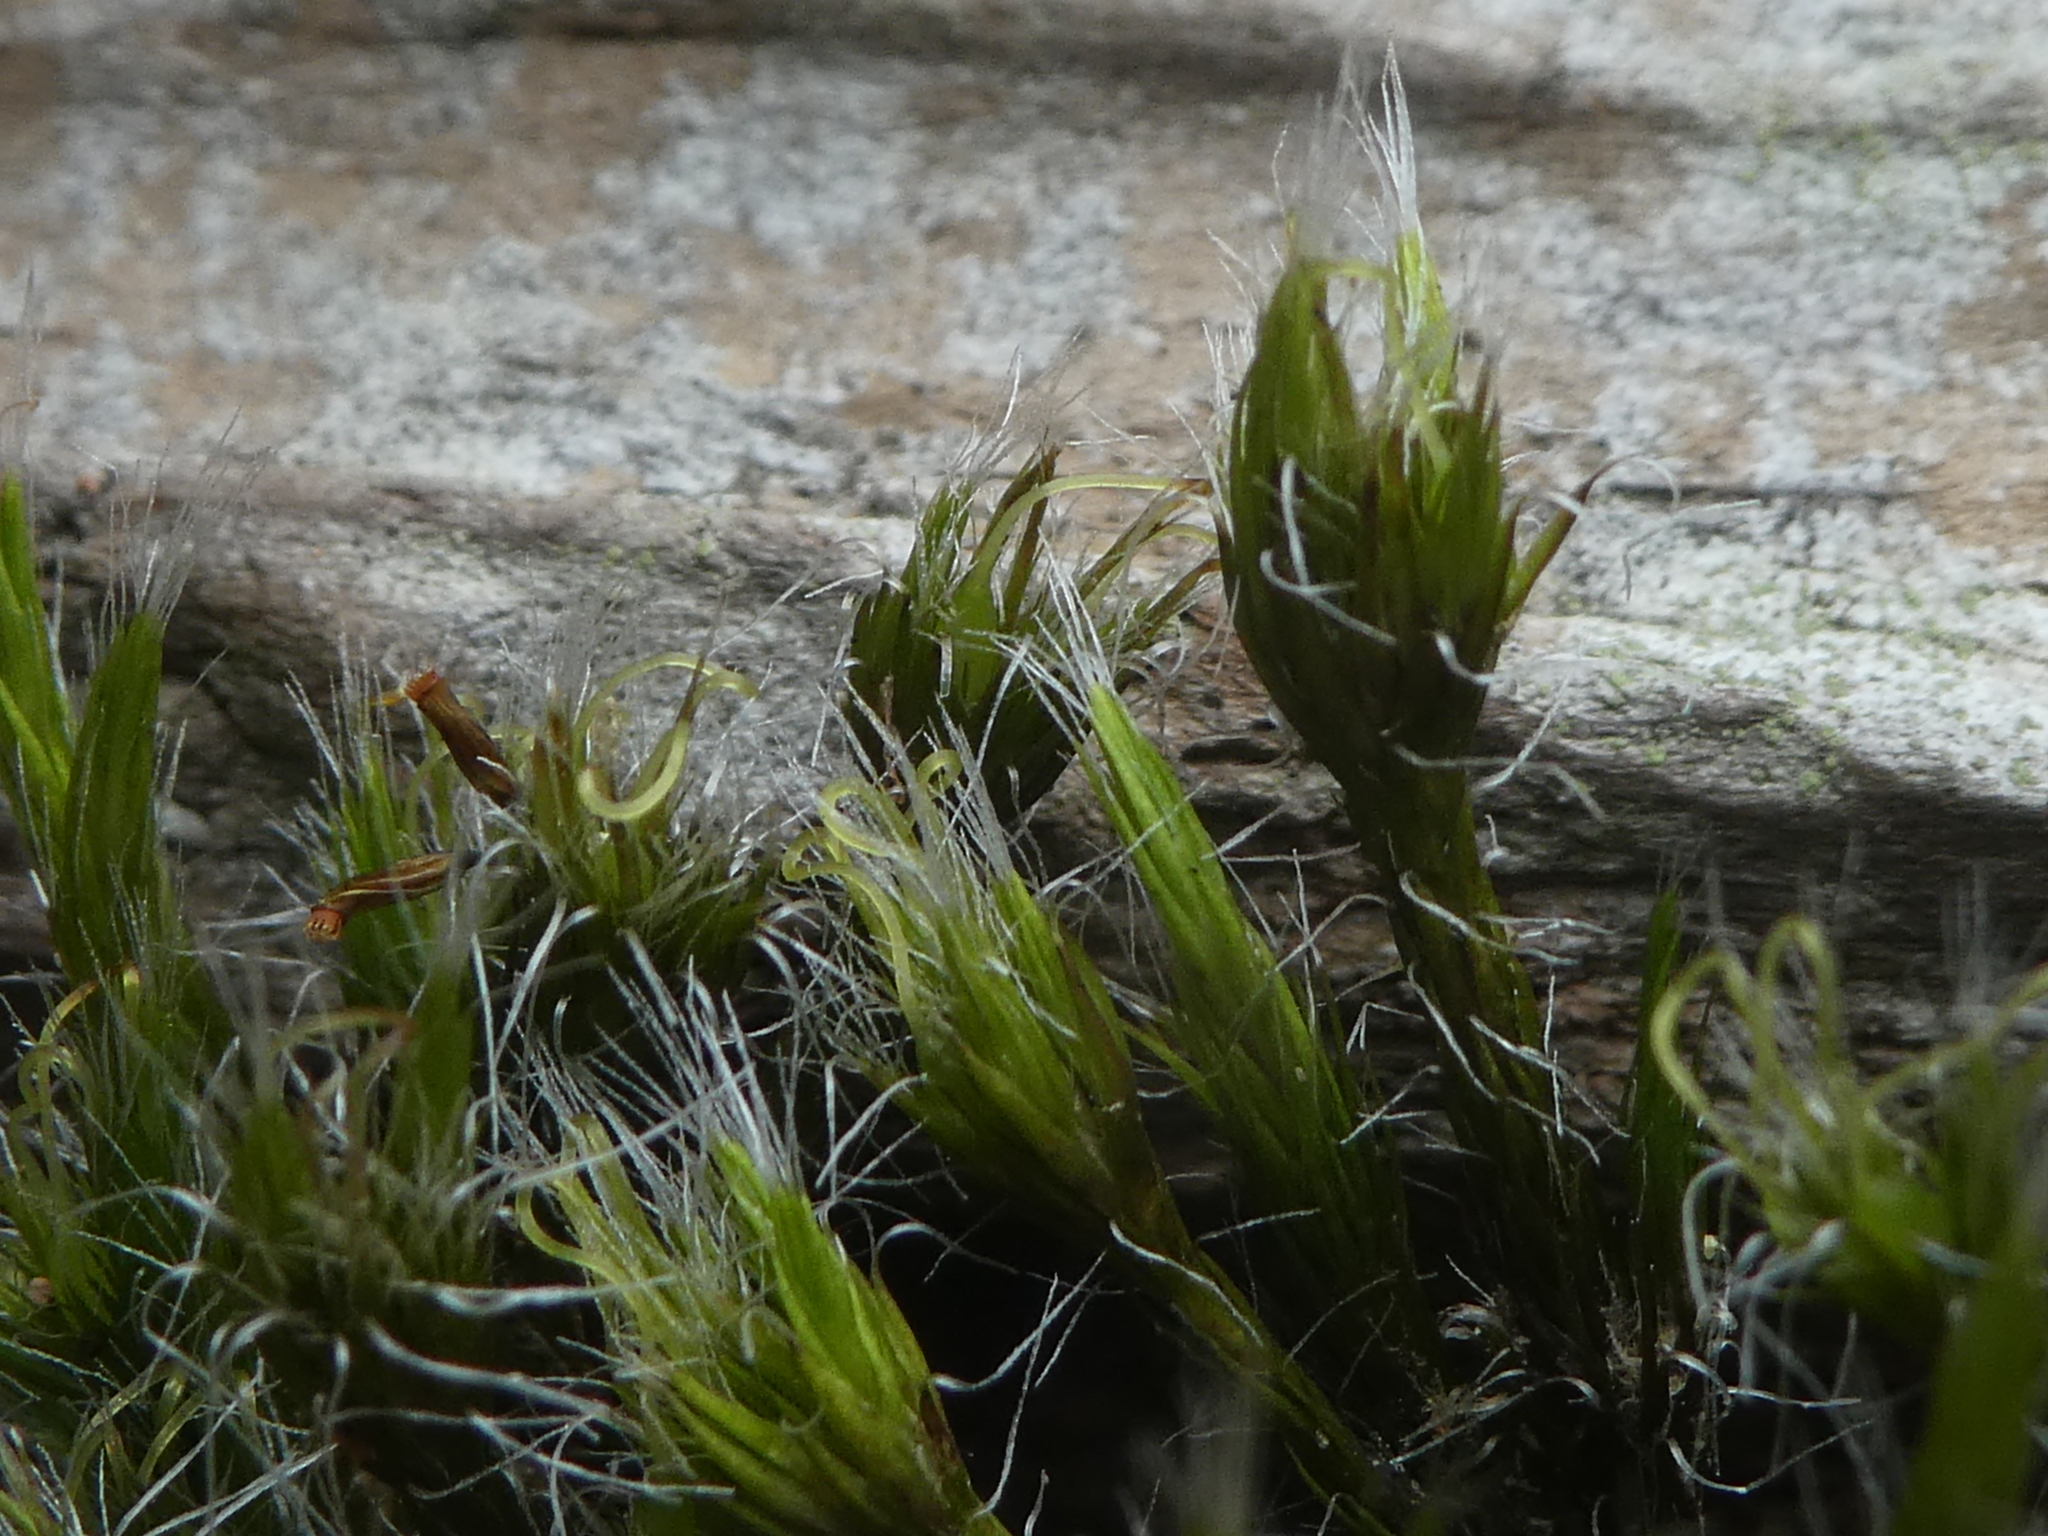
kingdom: Plantae
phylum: Bryophyta
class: Bryopsida
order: Dicranales
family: Leucobryaceae
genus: Campylopus
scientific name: Campylopus introflexus
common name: Heath star moss
